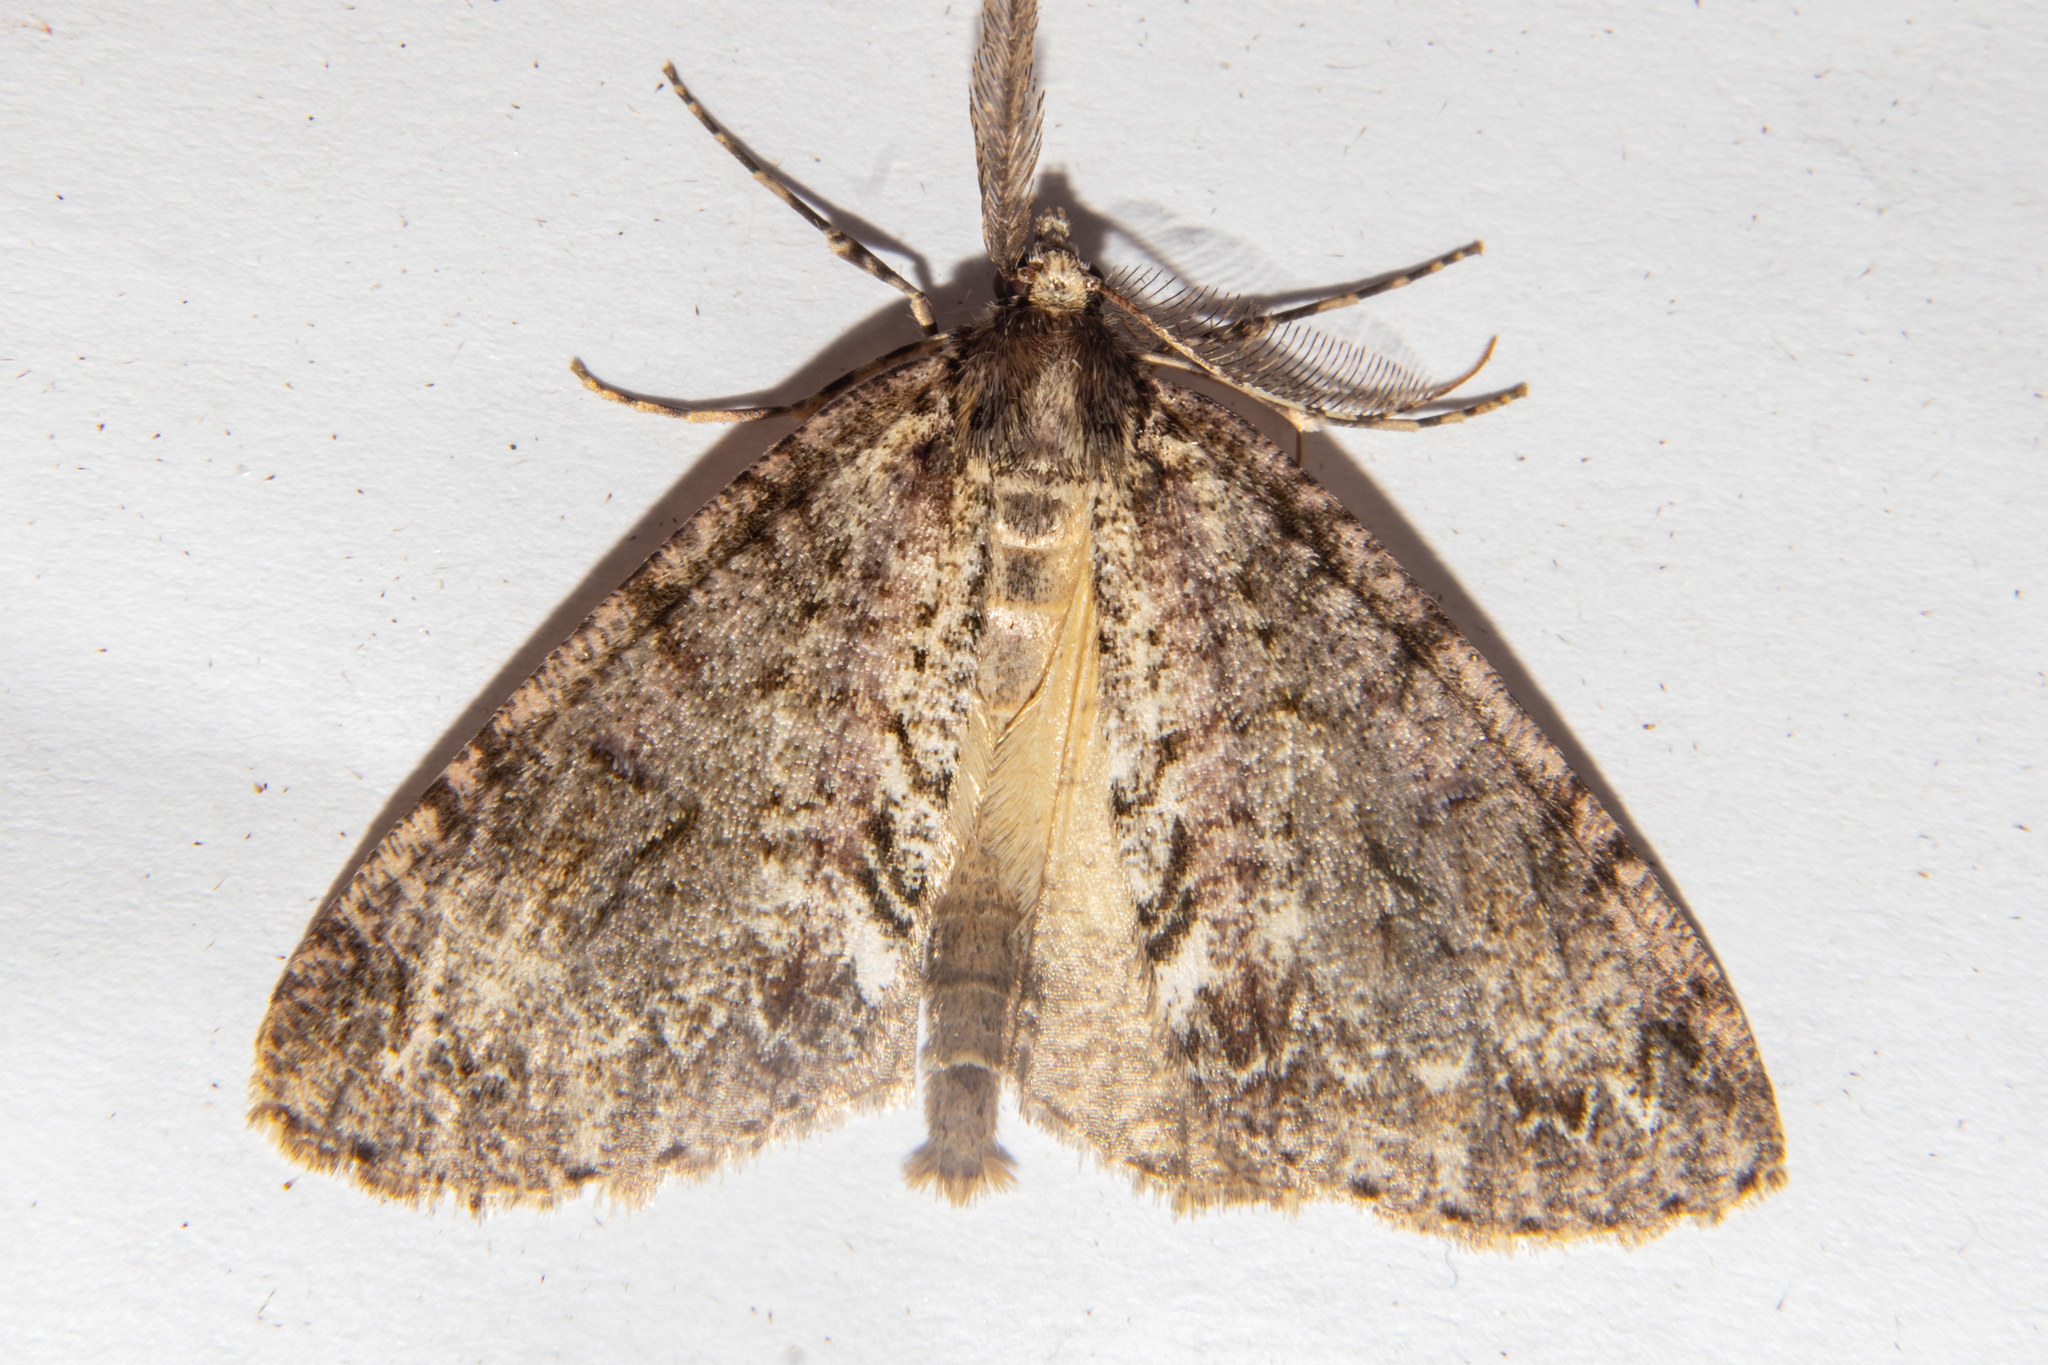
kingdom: Animalia
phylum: Arthropoda
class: Insecta
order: Lepidoptera
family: Geometridae
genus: Pseudocoremia
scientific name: Pseudocoremia suavis
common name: Common forest looper
